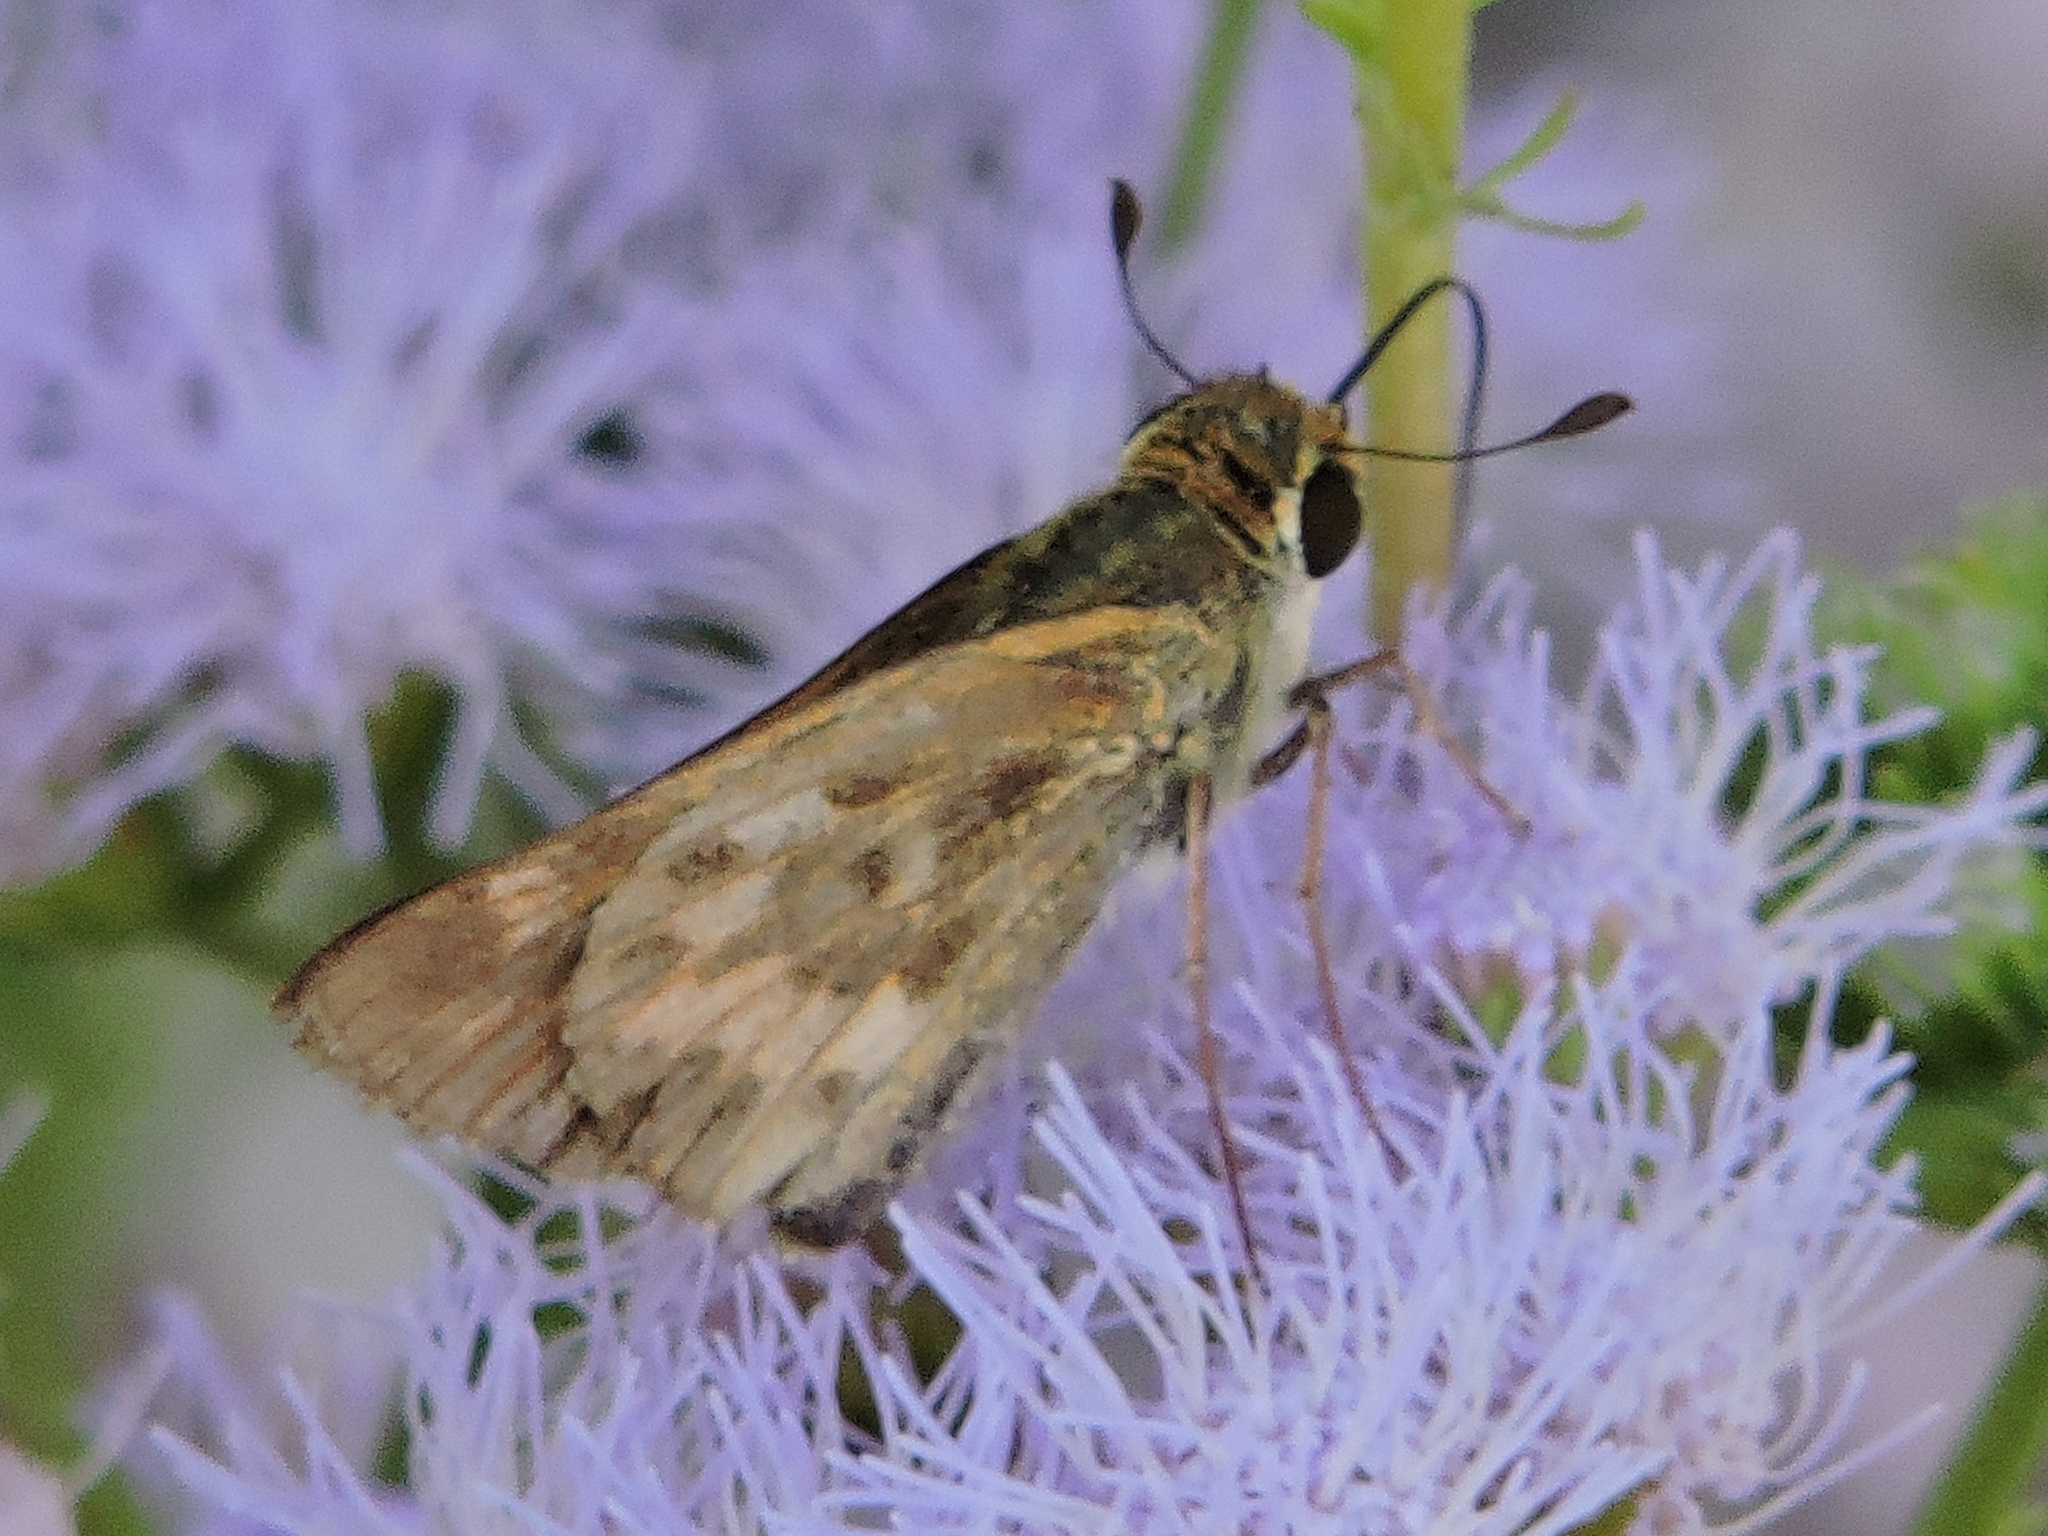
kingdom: Animalia
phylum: Arthropoda
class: Insecta
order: Lepidoptera
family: Hesperiidae
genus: Hylephila
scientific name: Hylephila phyleus
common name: Fiery skipper
